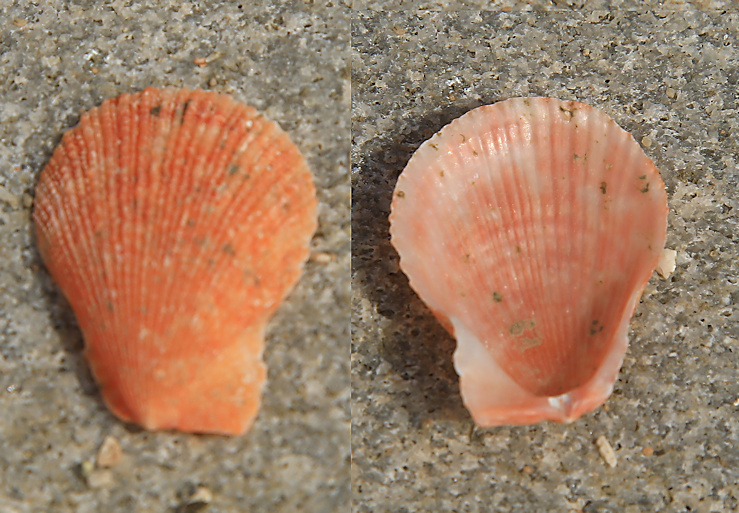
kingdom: Animalia
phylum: Mollusca
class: Bivalvia
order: Pectinida
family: Pectinidae
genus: Talochlamys
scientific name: Talochlamys multistriata
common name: Tinted scallop
